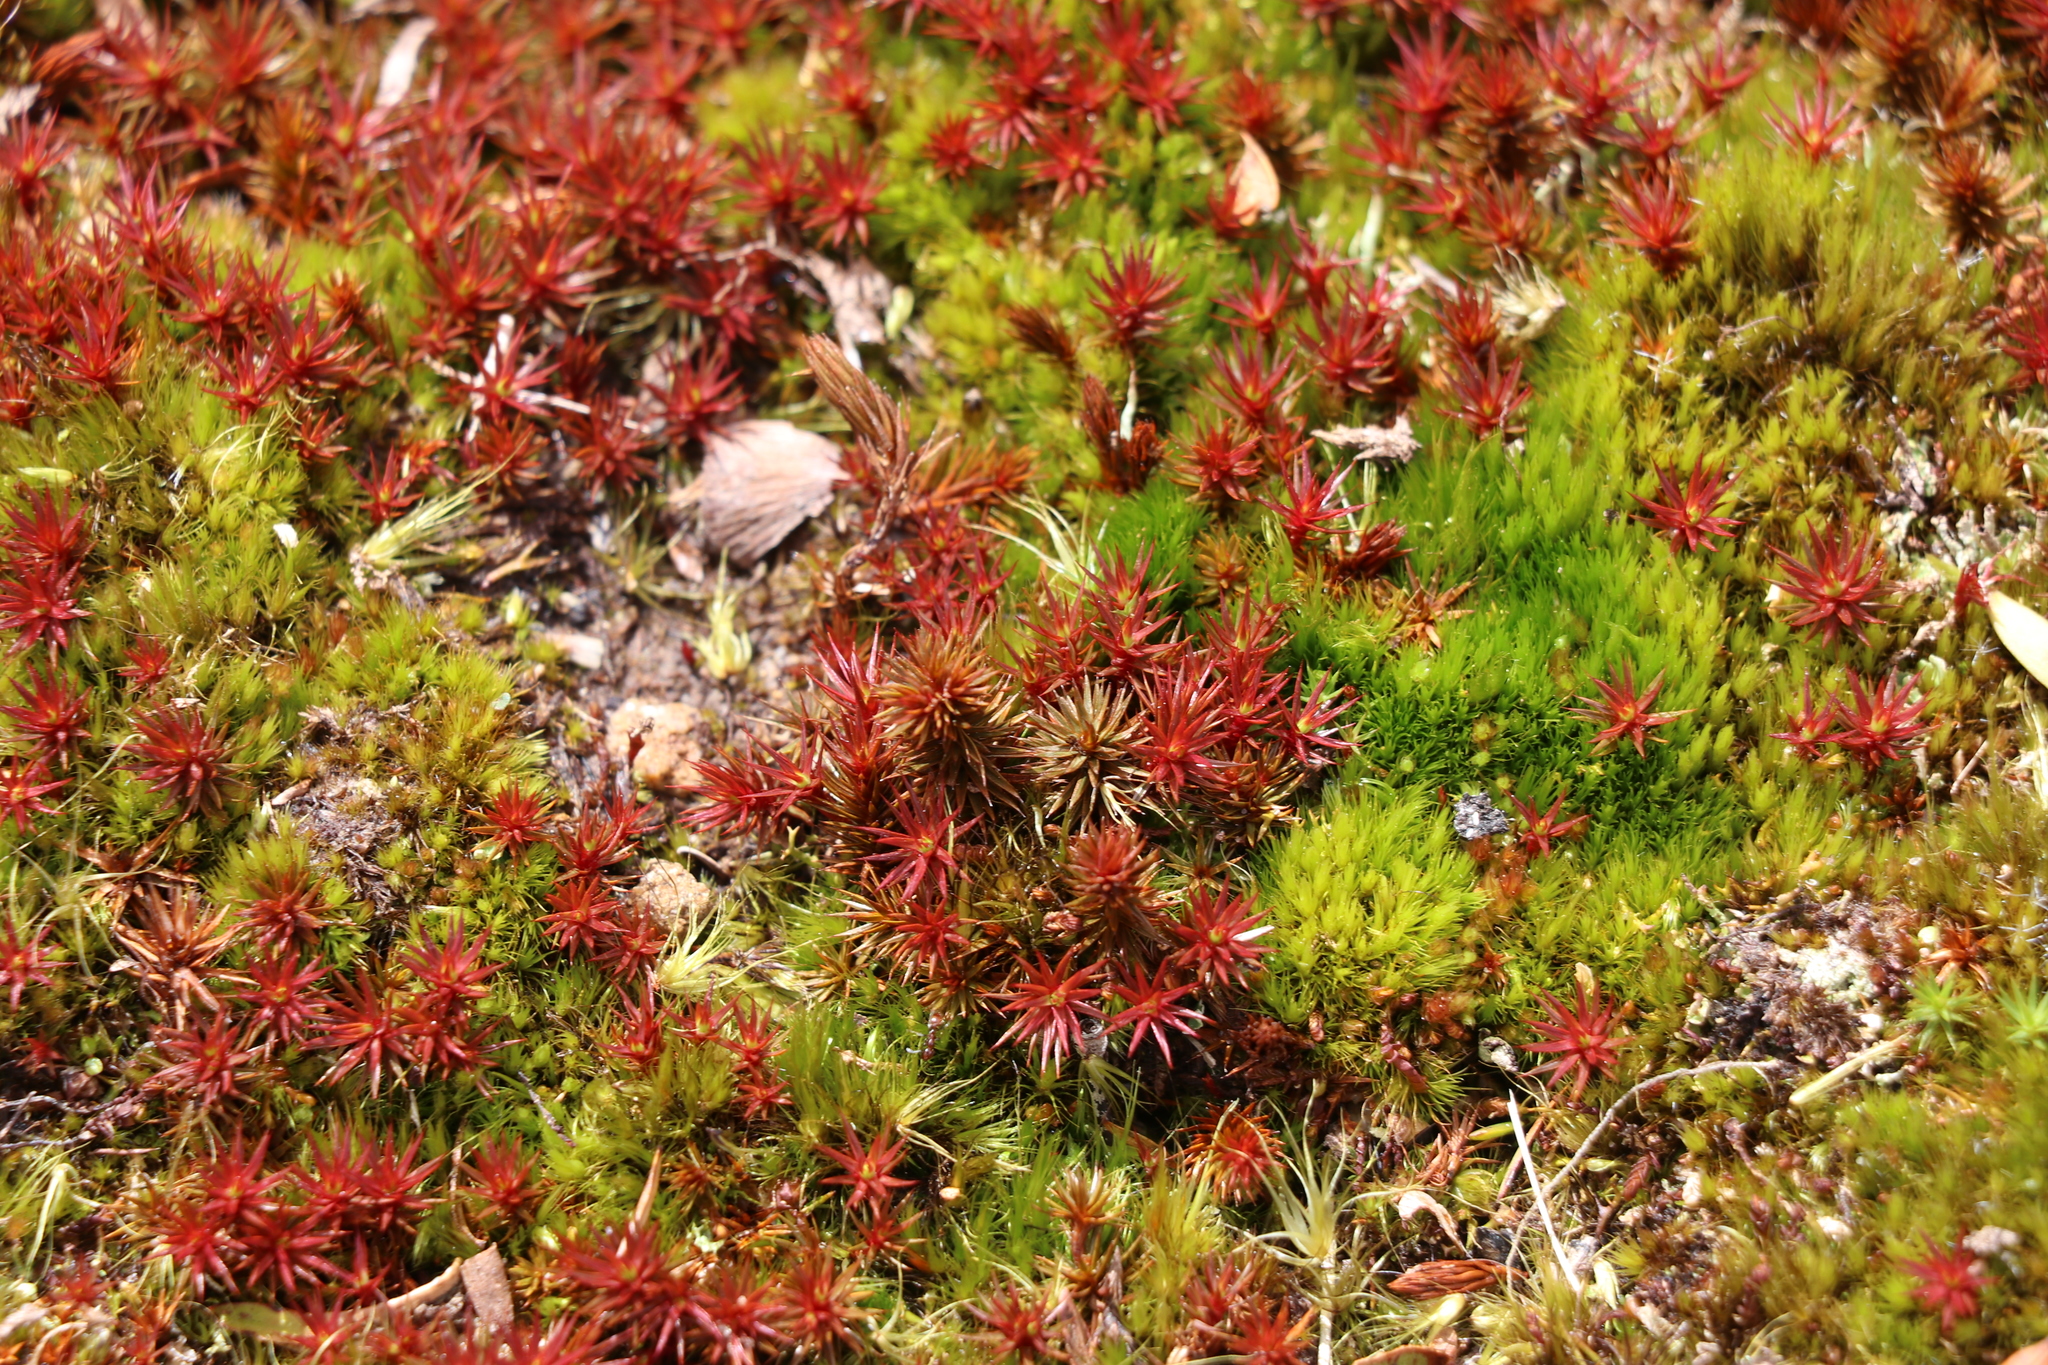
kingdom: Plantae
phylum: Bryophyta
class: Polytrichopsida
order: Polytrichales
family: Polytrichaceae
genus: Polytrichum
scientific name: Polytrichum juniperinum
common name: Juniper haircap moss
